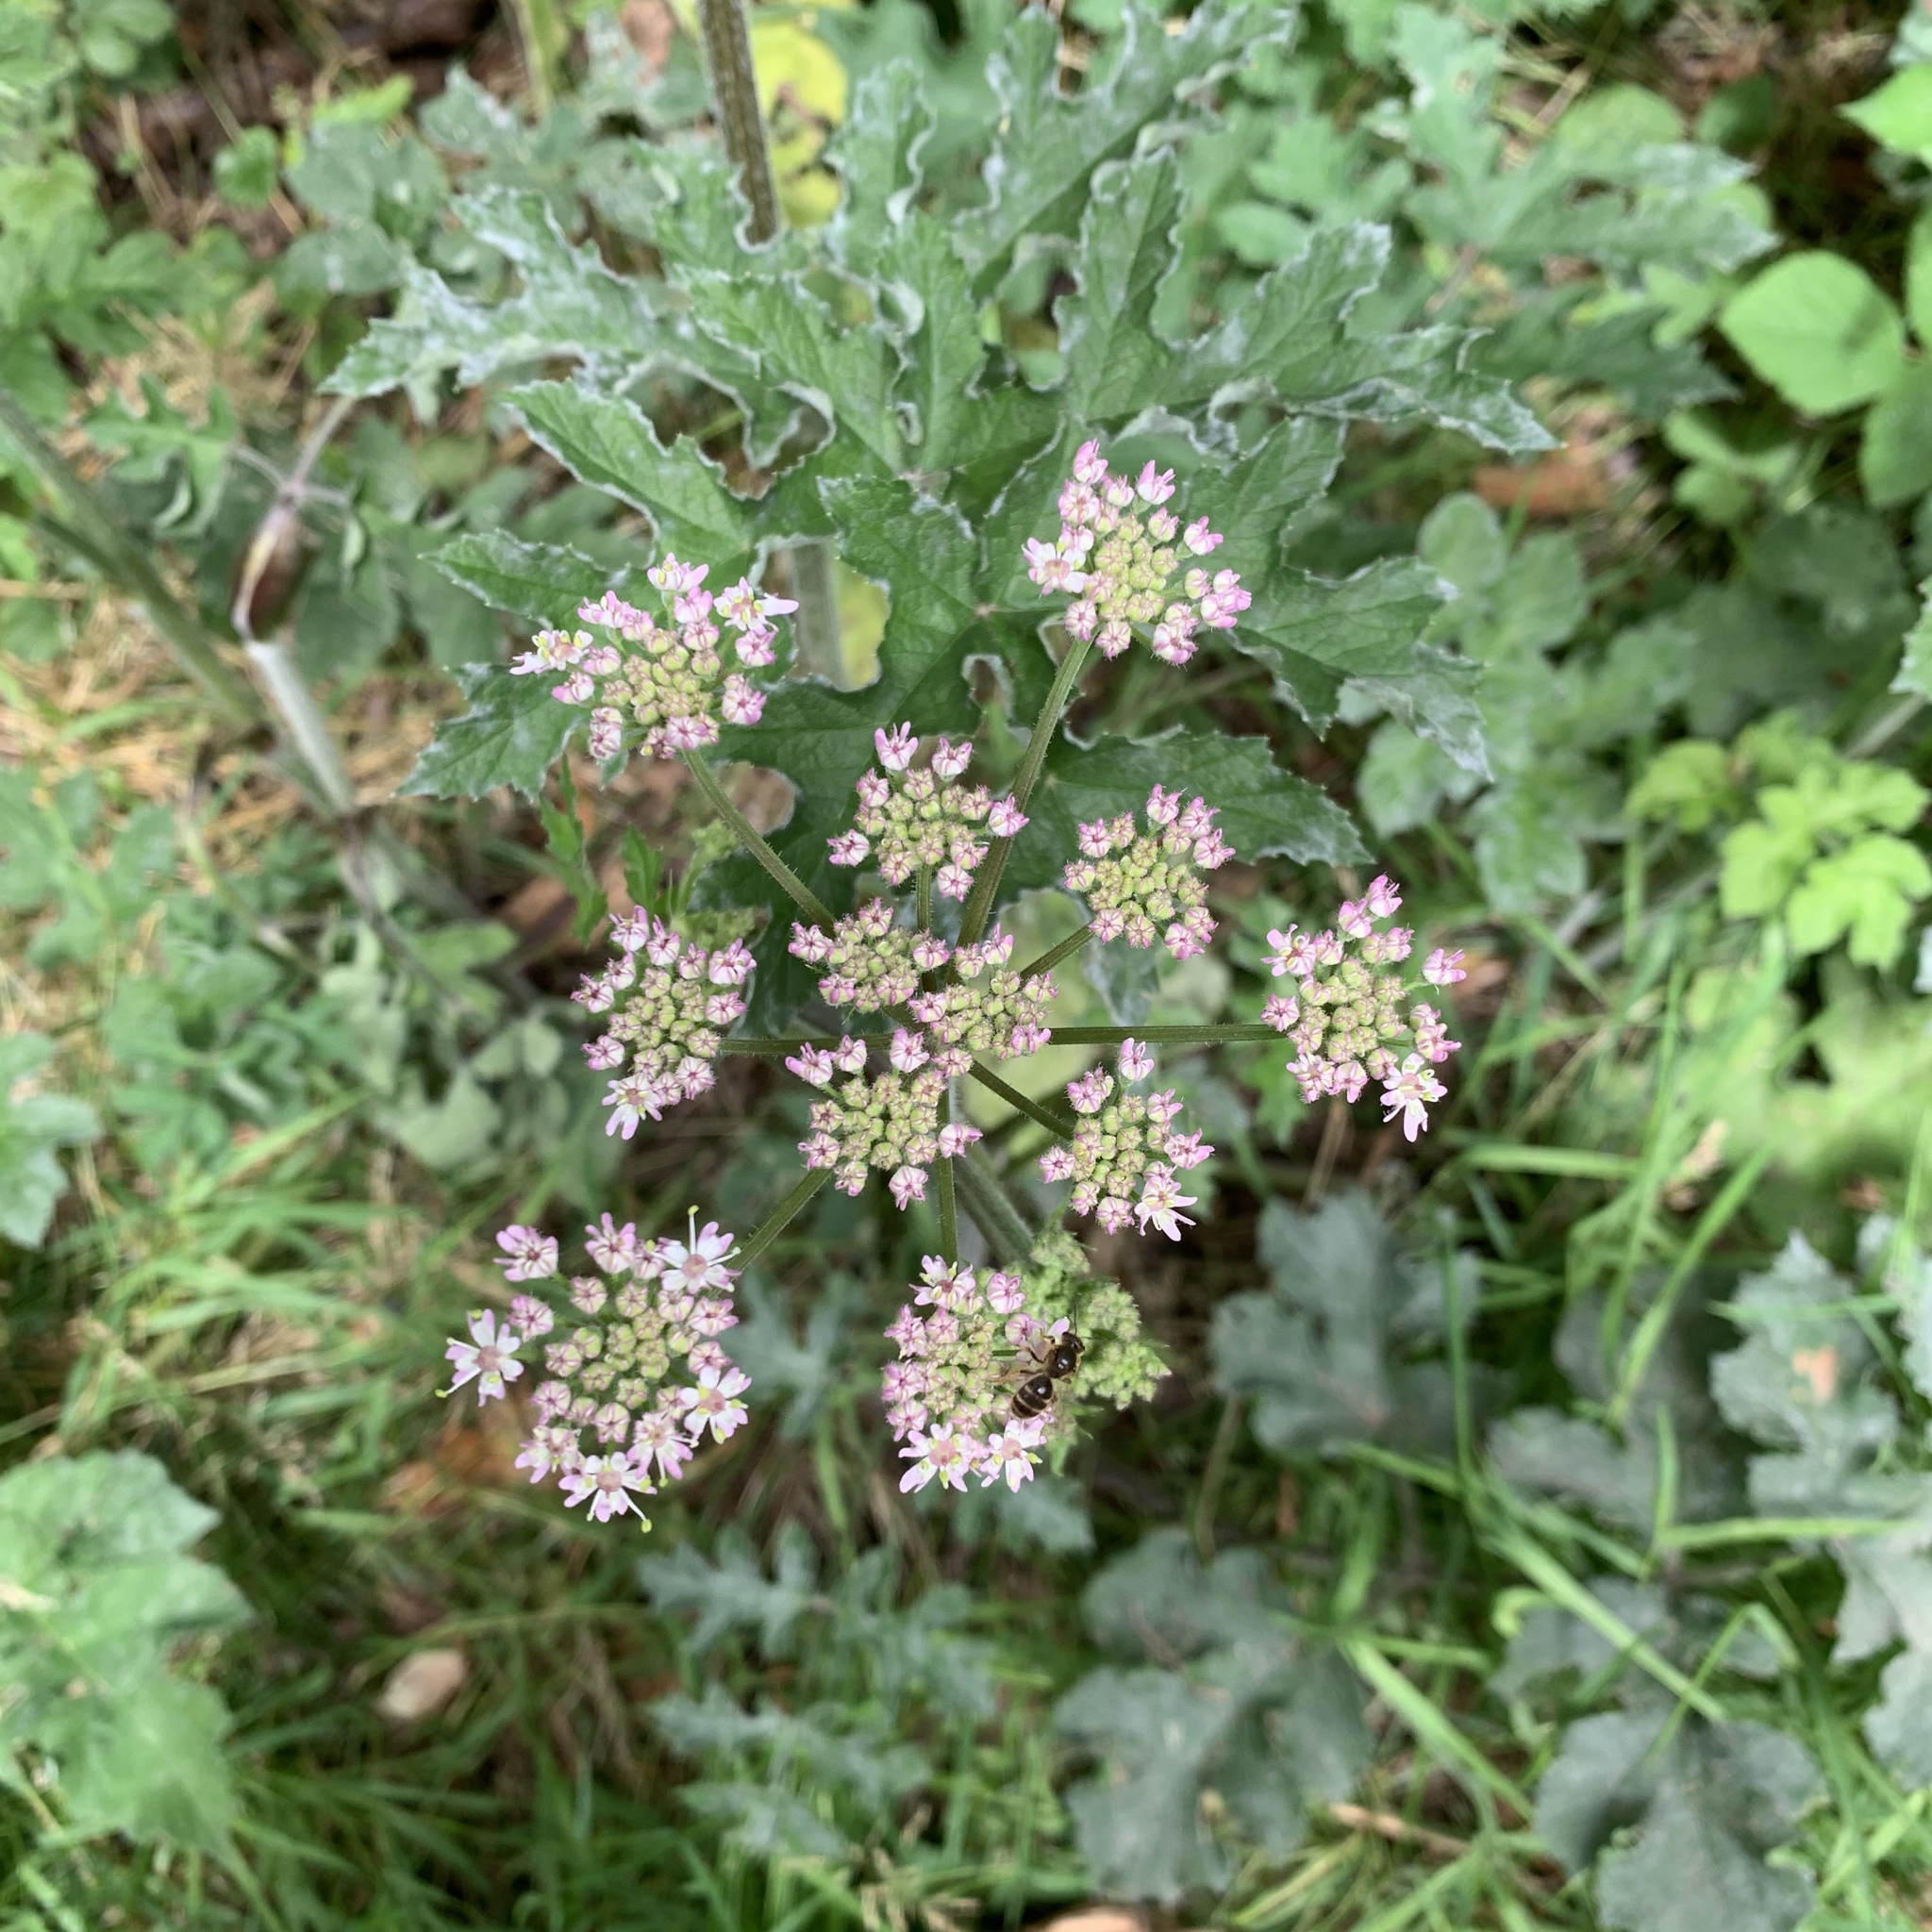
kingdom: Plantae
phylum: Tracheophyta
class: Magnoliopsida
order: Apiales
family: Apiaceae
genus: Heracleum
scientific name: Heracleum sphondylium
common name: Hogweed
